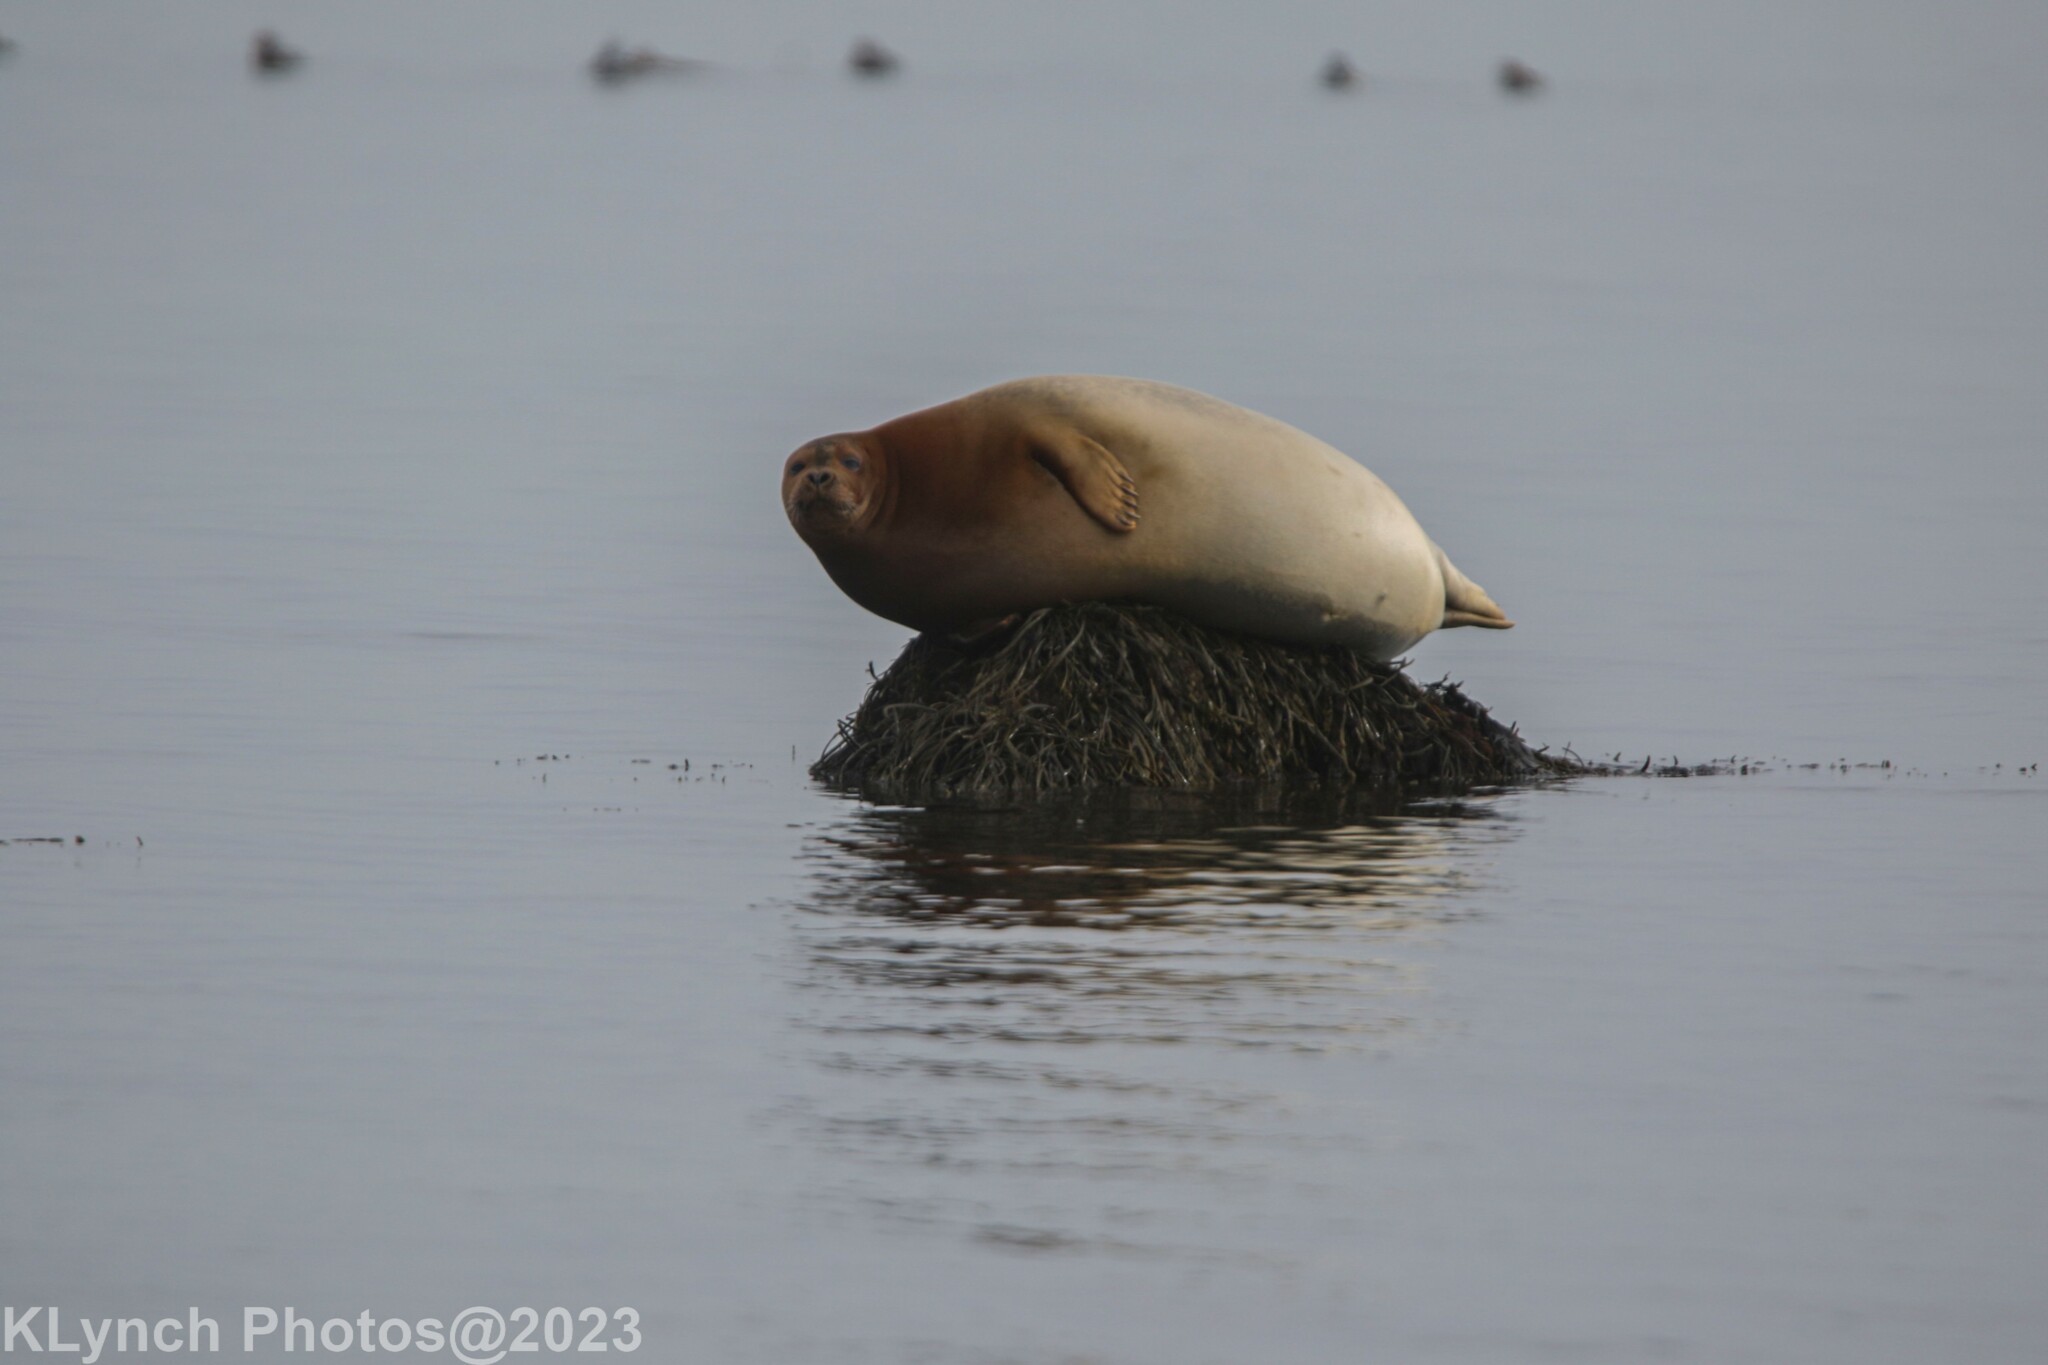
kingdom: Animalia
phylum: Chordata
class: Mammalia
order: Carnivora
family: Phocidae
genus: Phoca
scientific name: Phoca vitulina
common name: Harbor seal
